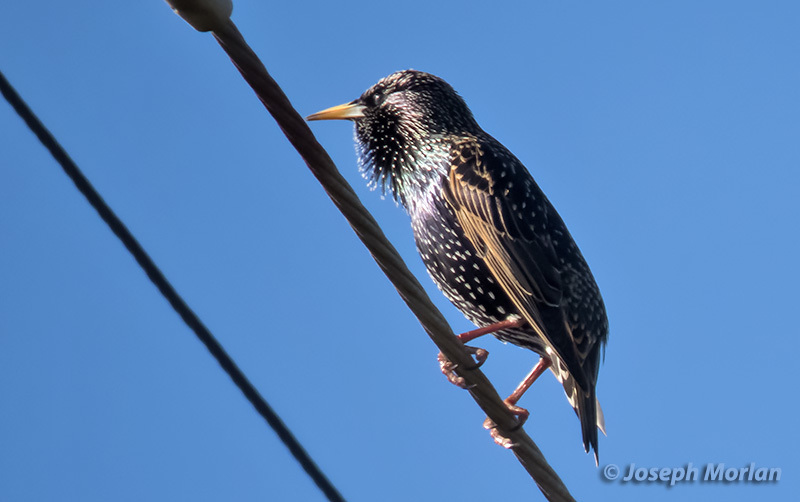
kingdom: Animalia
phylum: Chordata
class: Aves
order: Passeriformes
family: Sturnidae
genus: Sturnus
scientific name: Sturnus vulgaris
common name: Common starling
